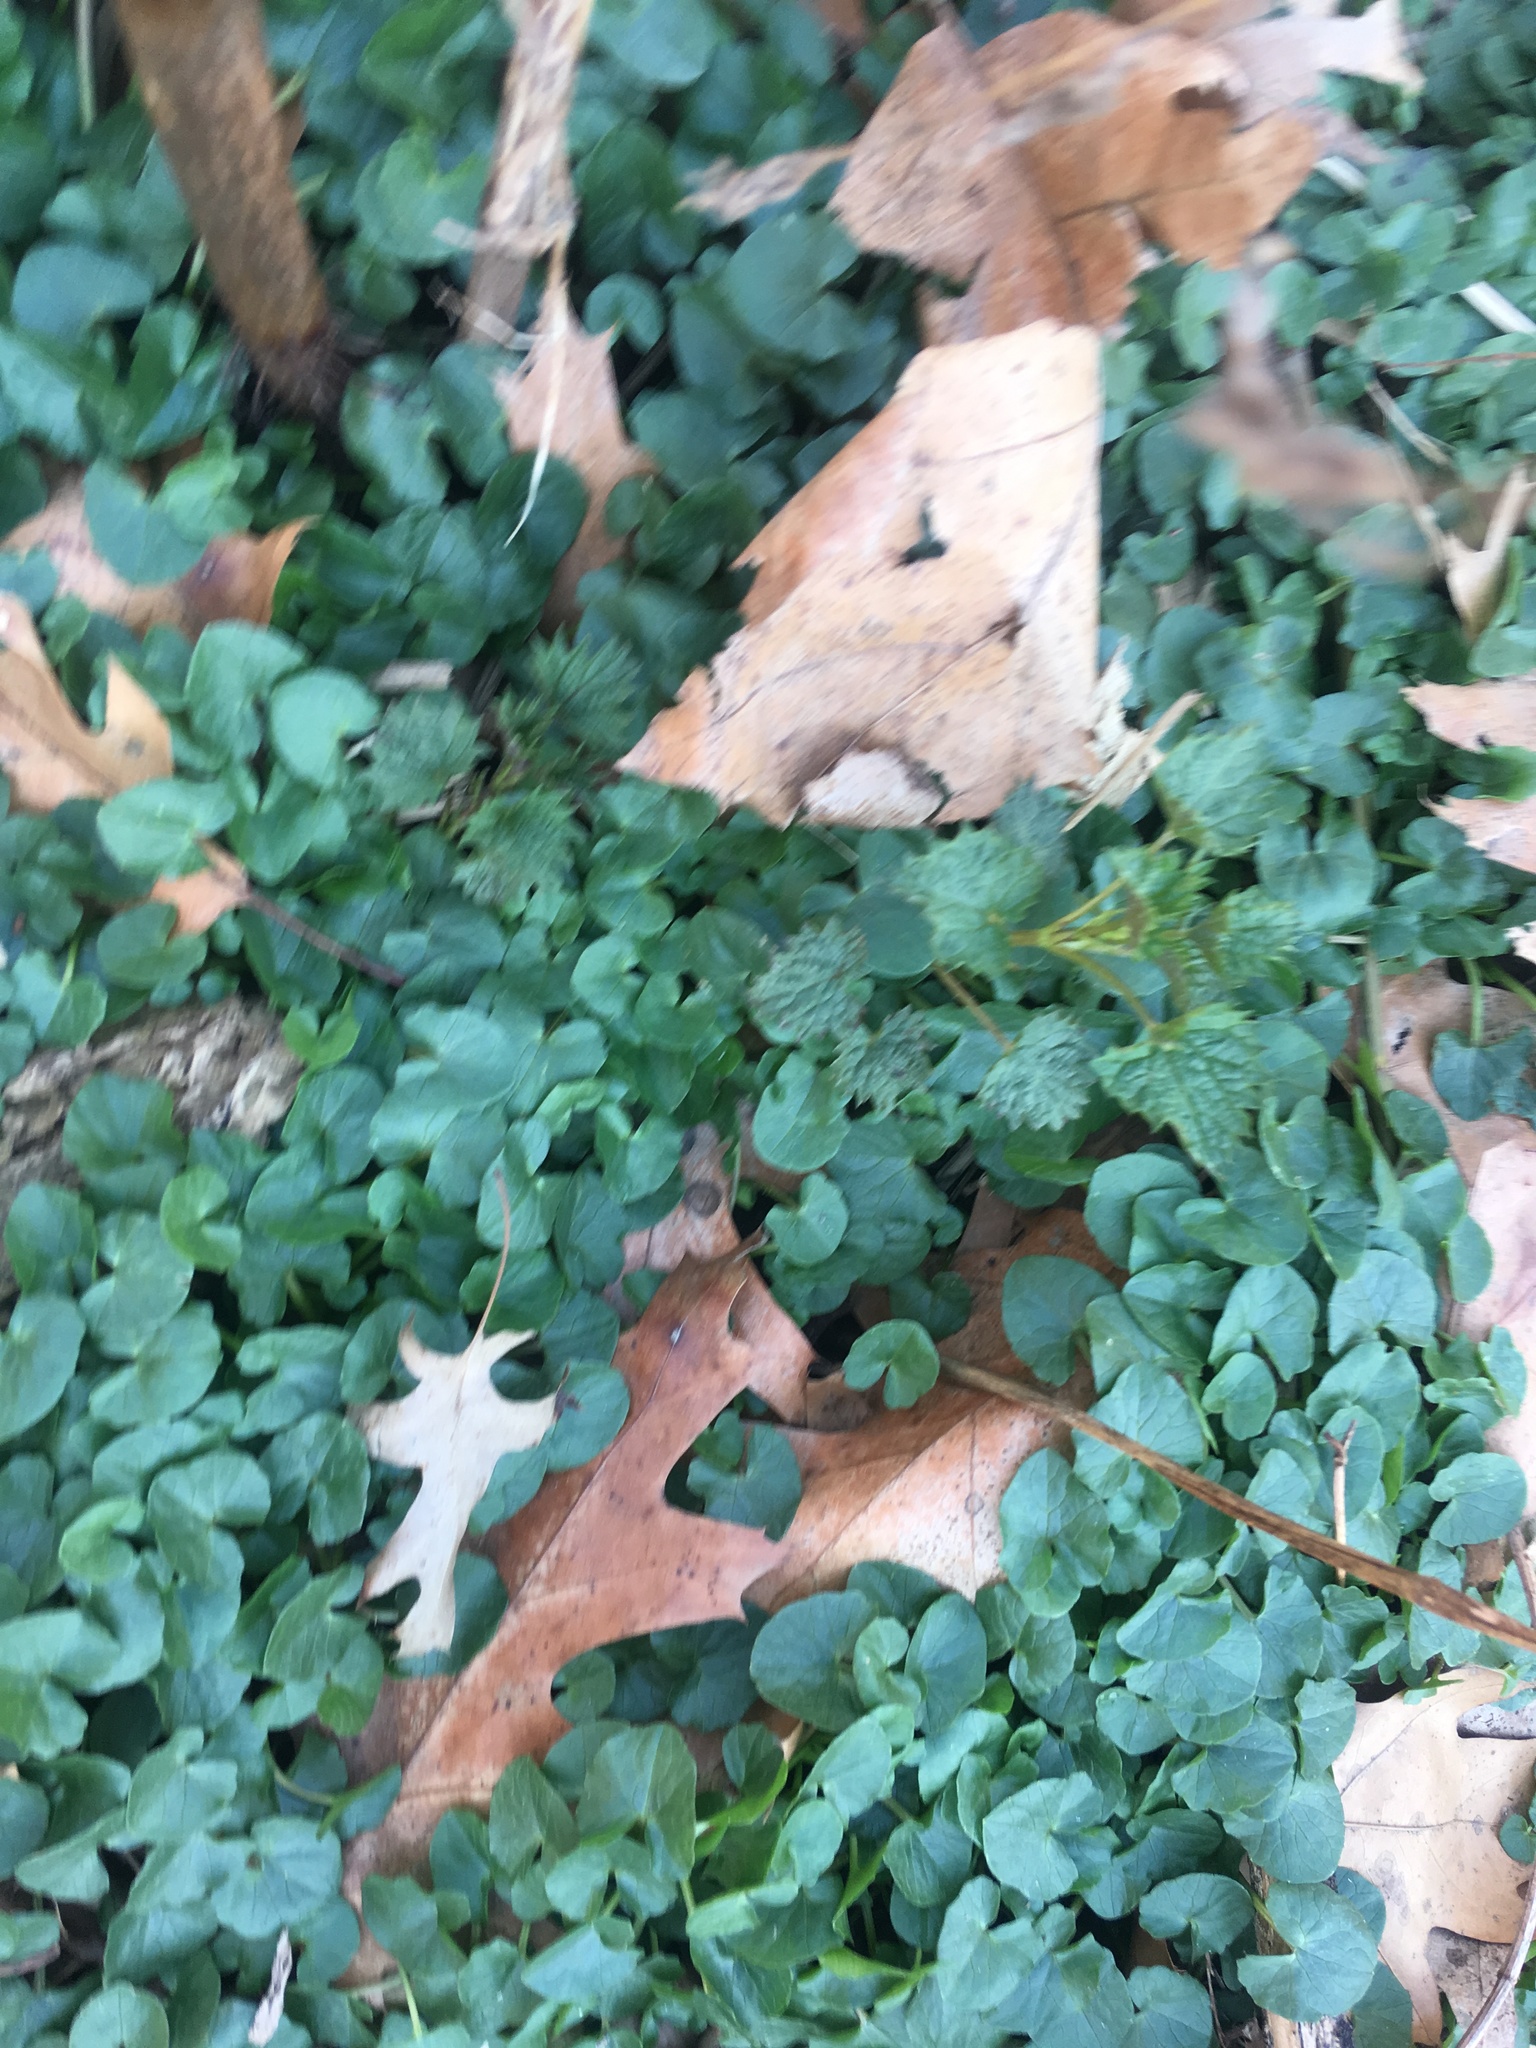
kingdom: Plantae
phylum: Tracheophyta
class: Magnoliopsida
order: Ranunculales
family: Ranunculaceae
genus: Ficaria
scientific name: Ficaria verna
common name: Lesser celandine
